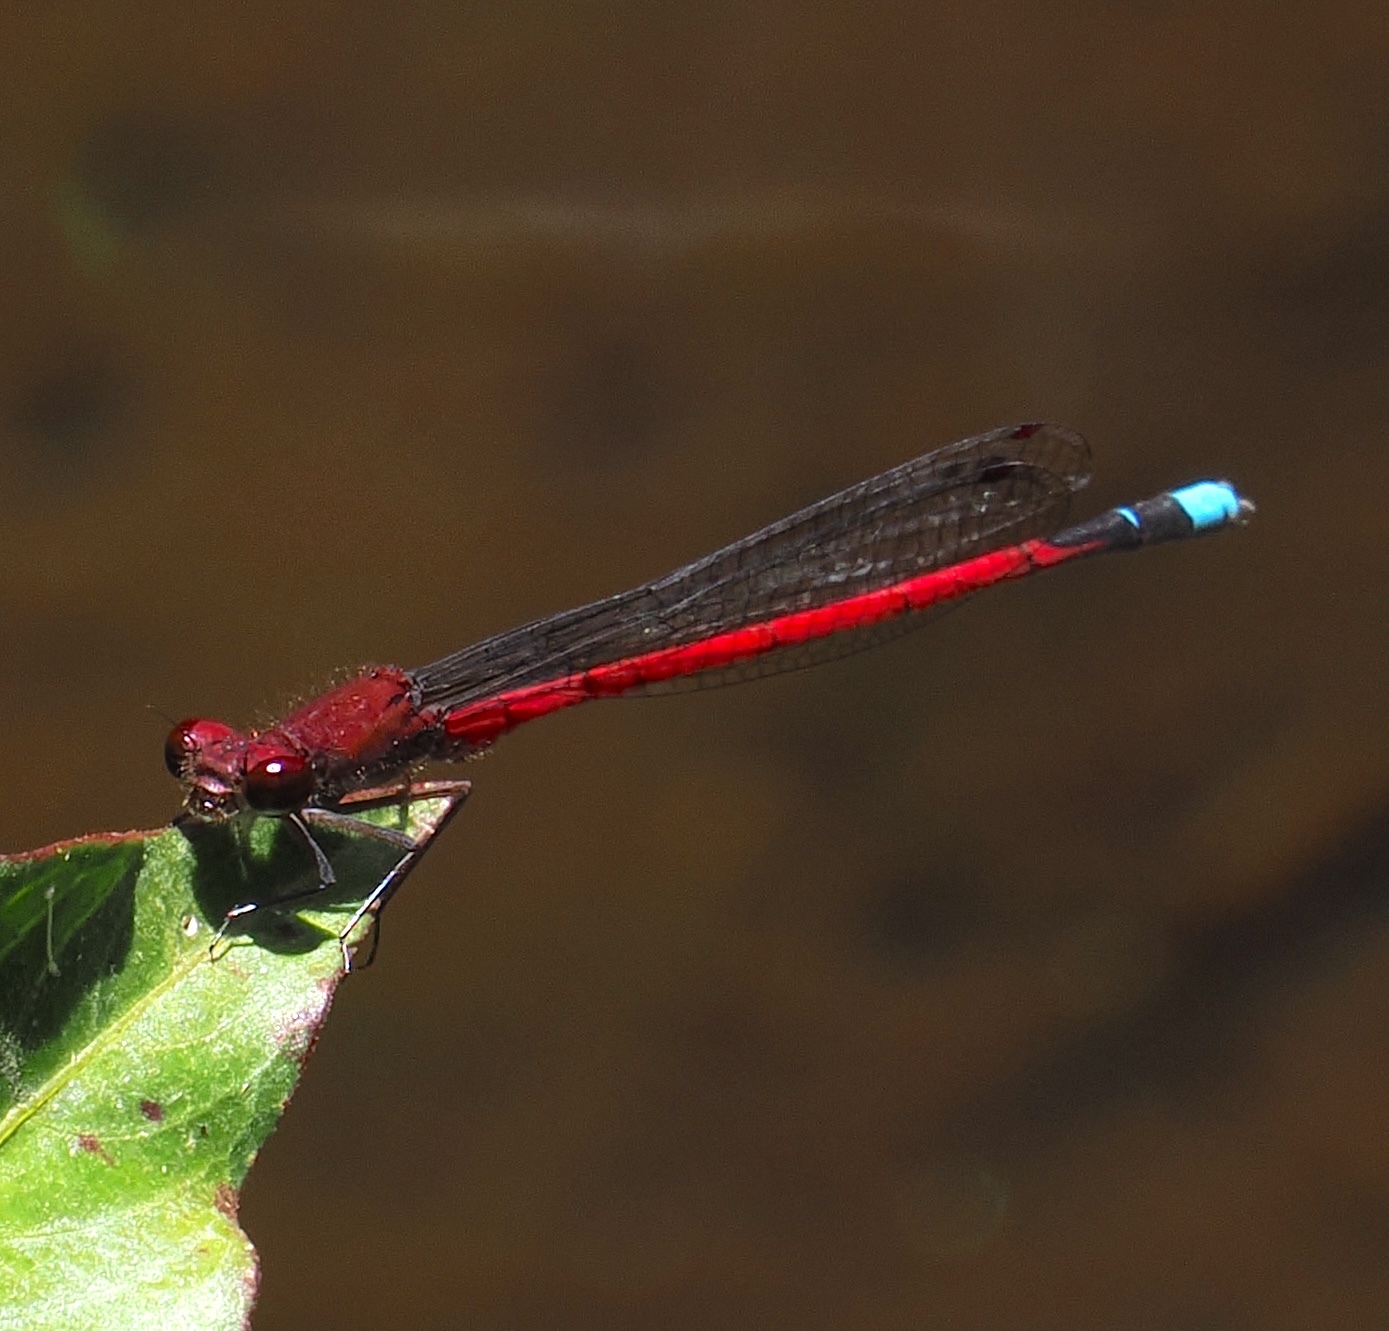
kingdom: Animalia
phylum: Arthropoda
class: Insecta
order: Odonata
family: Coenagrionidae
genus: Oxyagrion
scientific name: Oxyagrion simile
